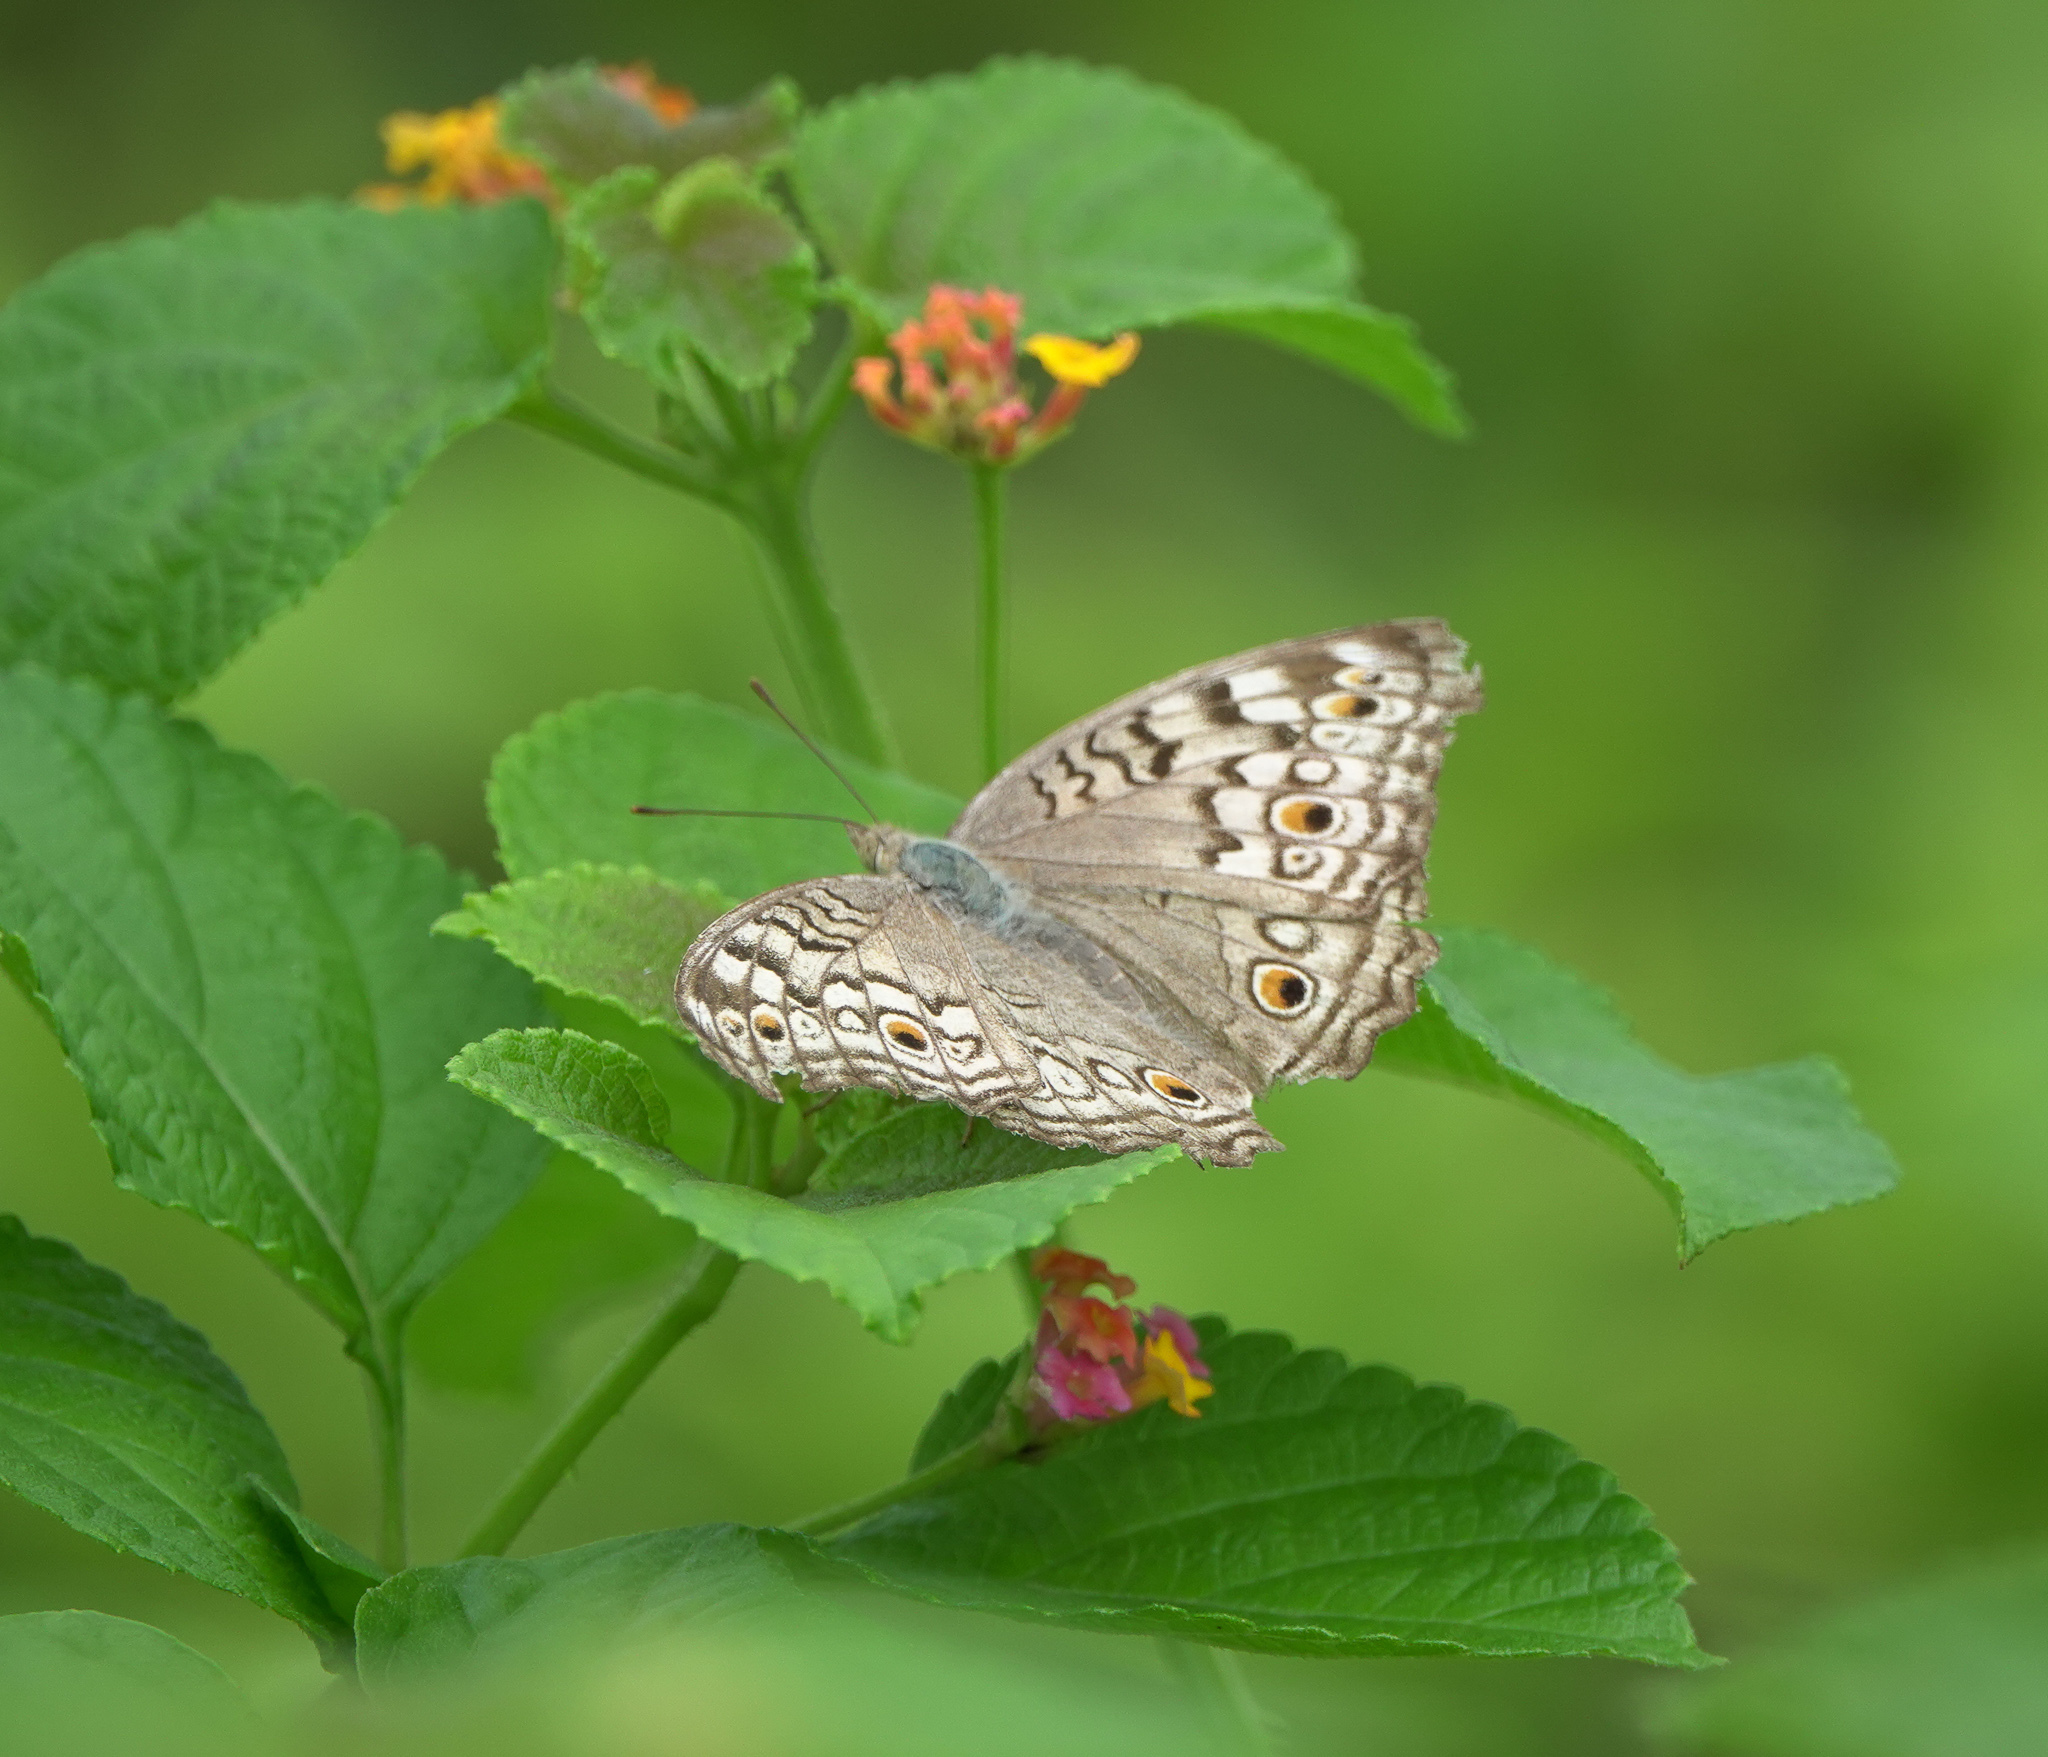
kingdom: Animalia
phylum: Arthropoda
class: Insecta
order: Lepidoptera
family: Nymphalidae
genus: Junonia
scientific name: Junonia atlites
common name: Grey pansy
